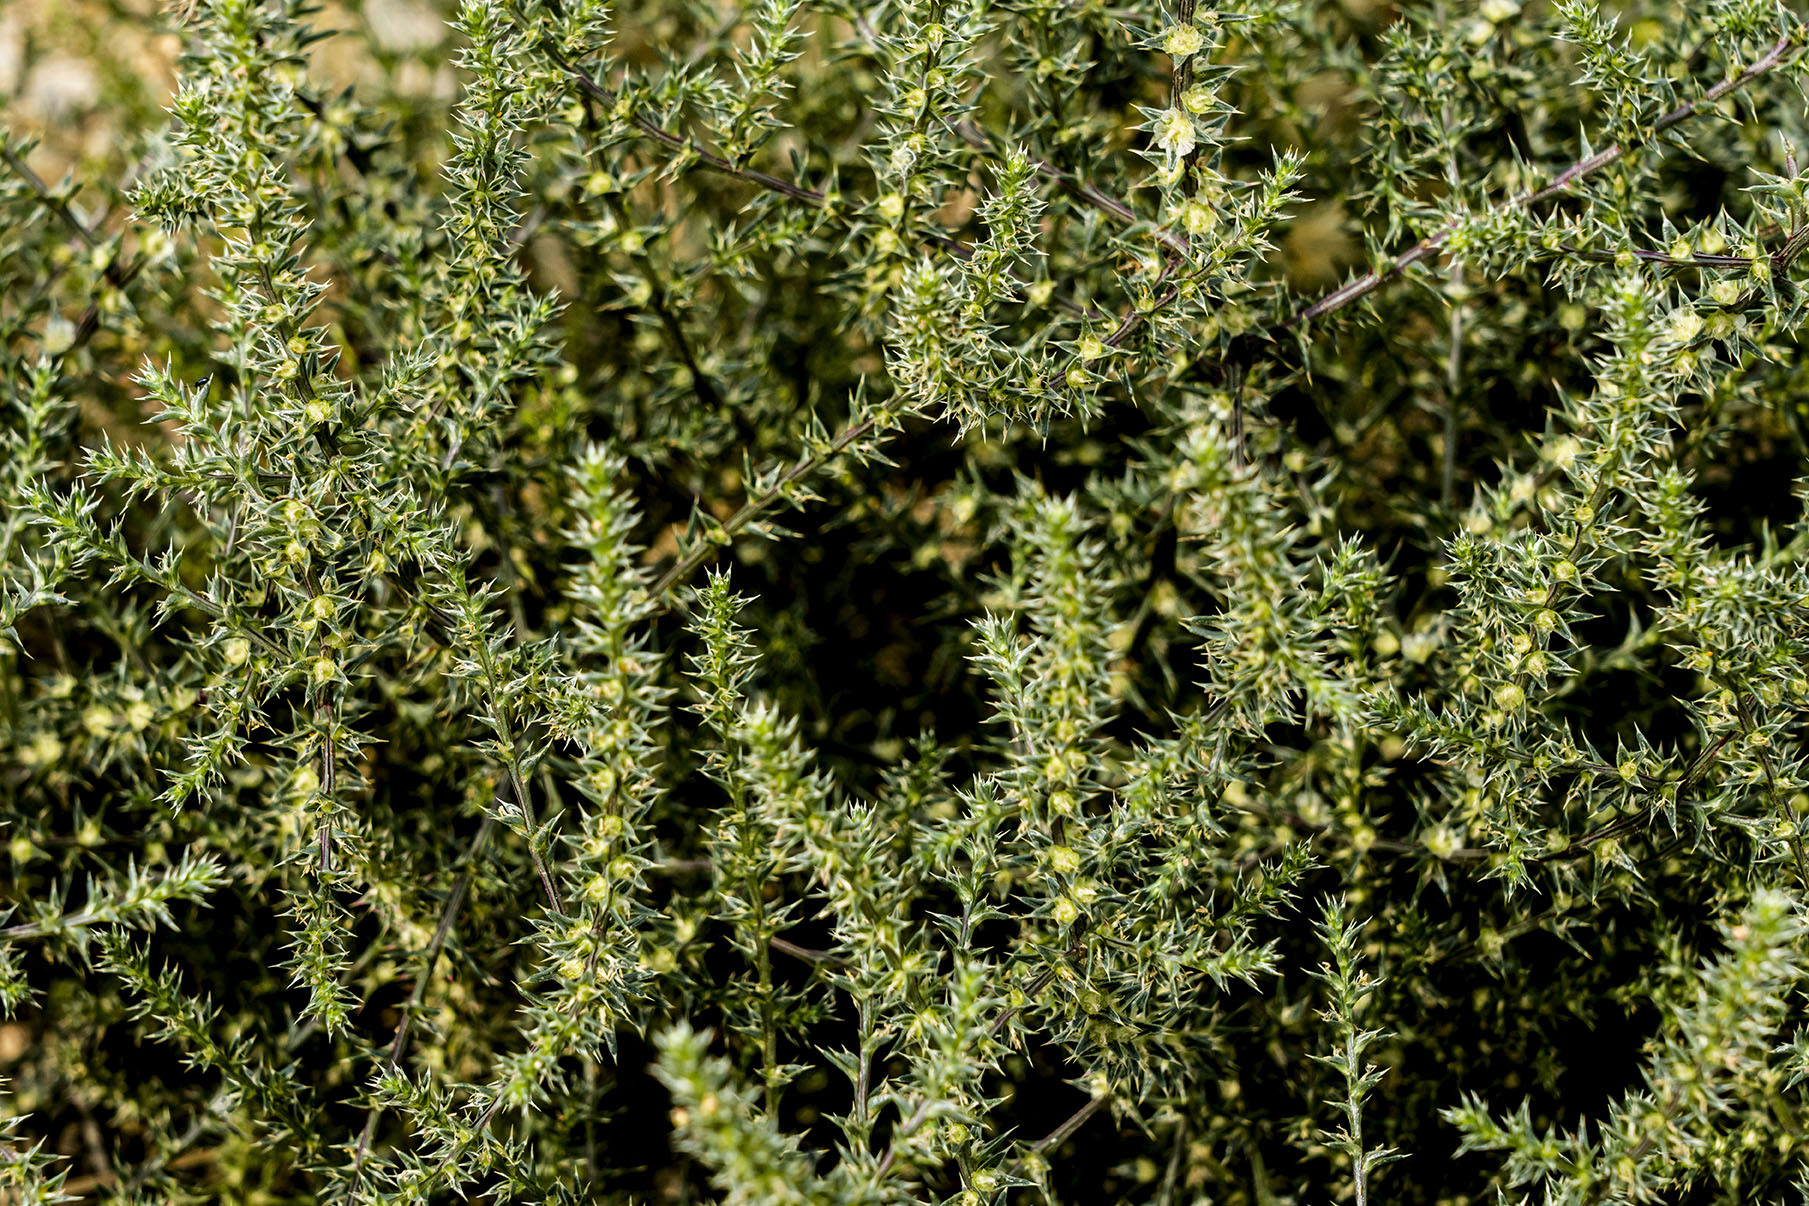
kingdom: Plantae
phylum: Tracheophyta
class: Magnoliopsida
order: Caryophyllales
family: Amaranthaceae
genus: Salsola
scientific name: Salsola tragus
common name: Prickly russian thistle
